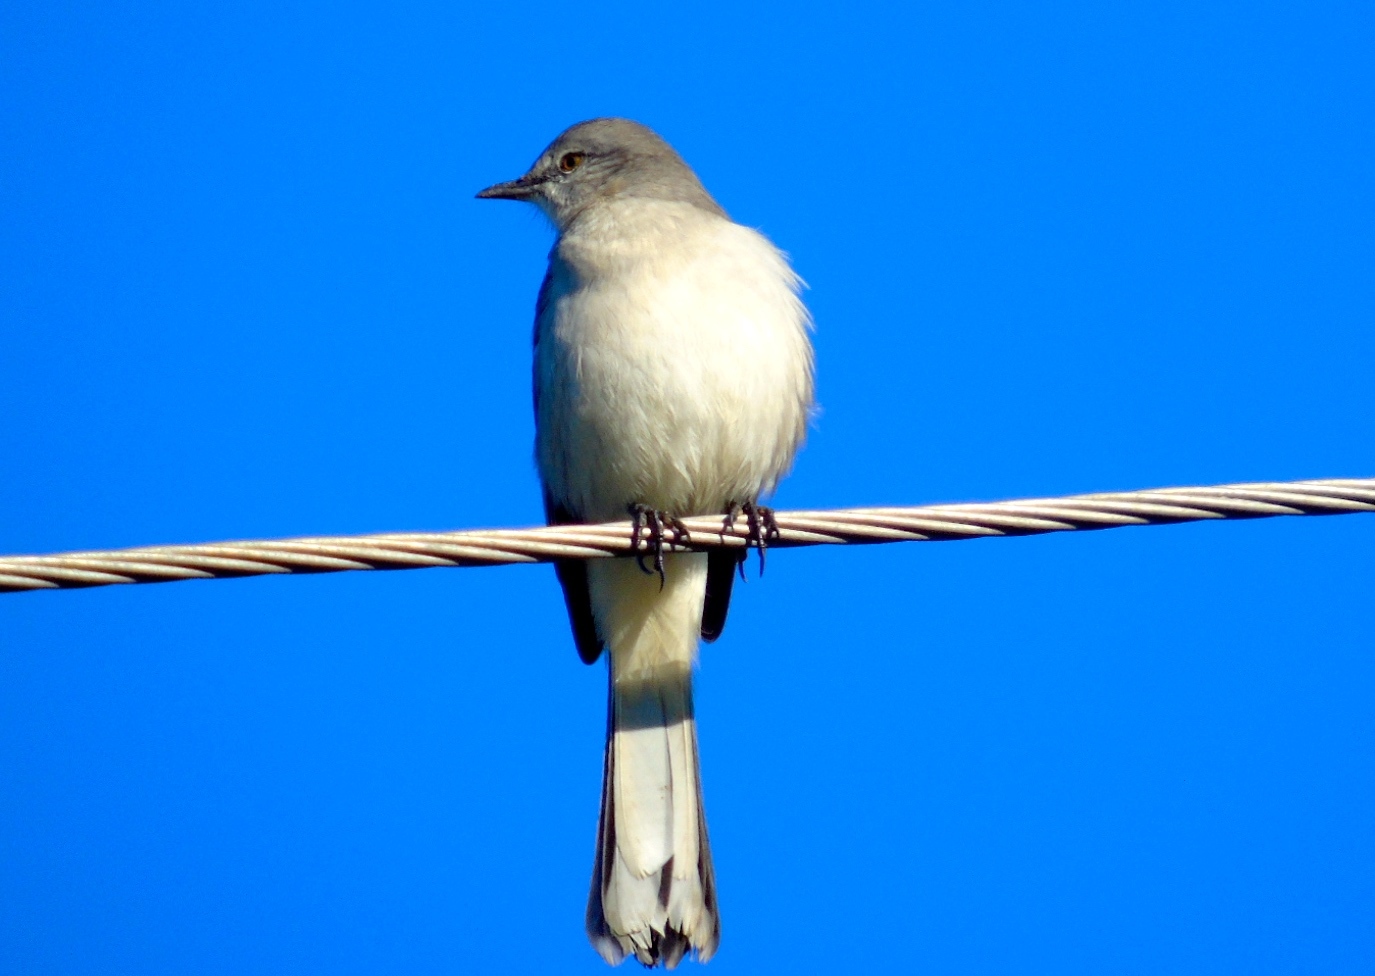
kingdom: Animalia
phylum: Chordata
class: Aves
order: Passeriformes
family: Mimidae
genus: Mimus
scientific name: Mimus polyglottos
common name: Northern mockingbird
